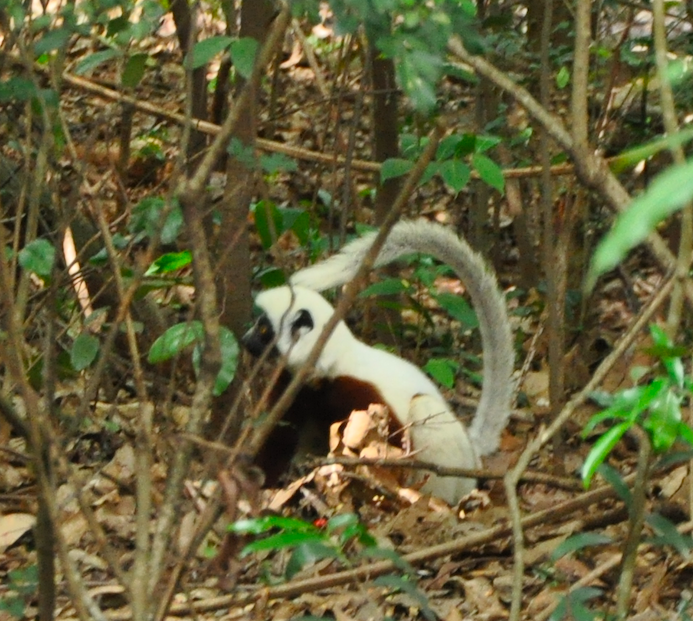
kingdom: Animalia
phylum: Chordata
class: Mammalia
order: Primates
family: Indriidae
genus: Propithecus
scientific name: Propithecus coquereli
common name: Coquerel's sifaka
